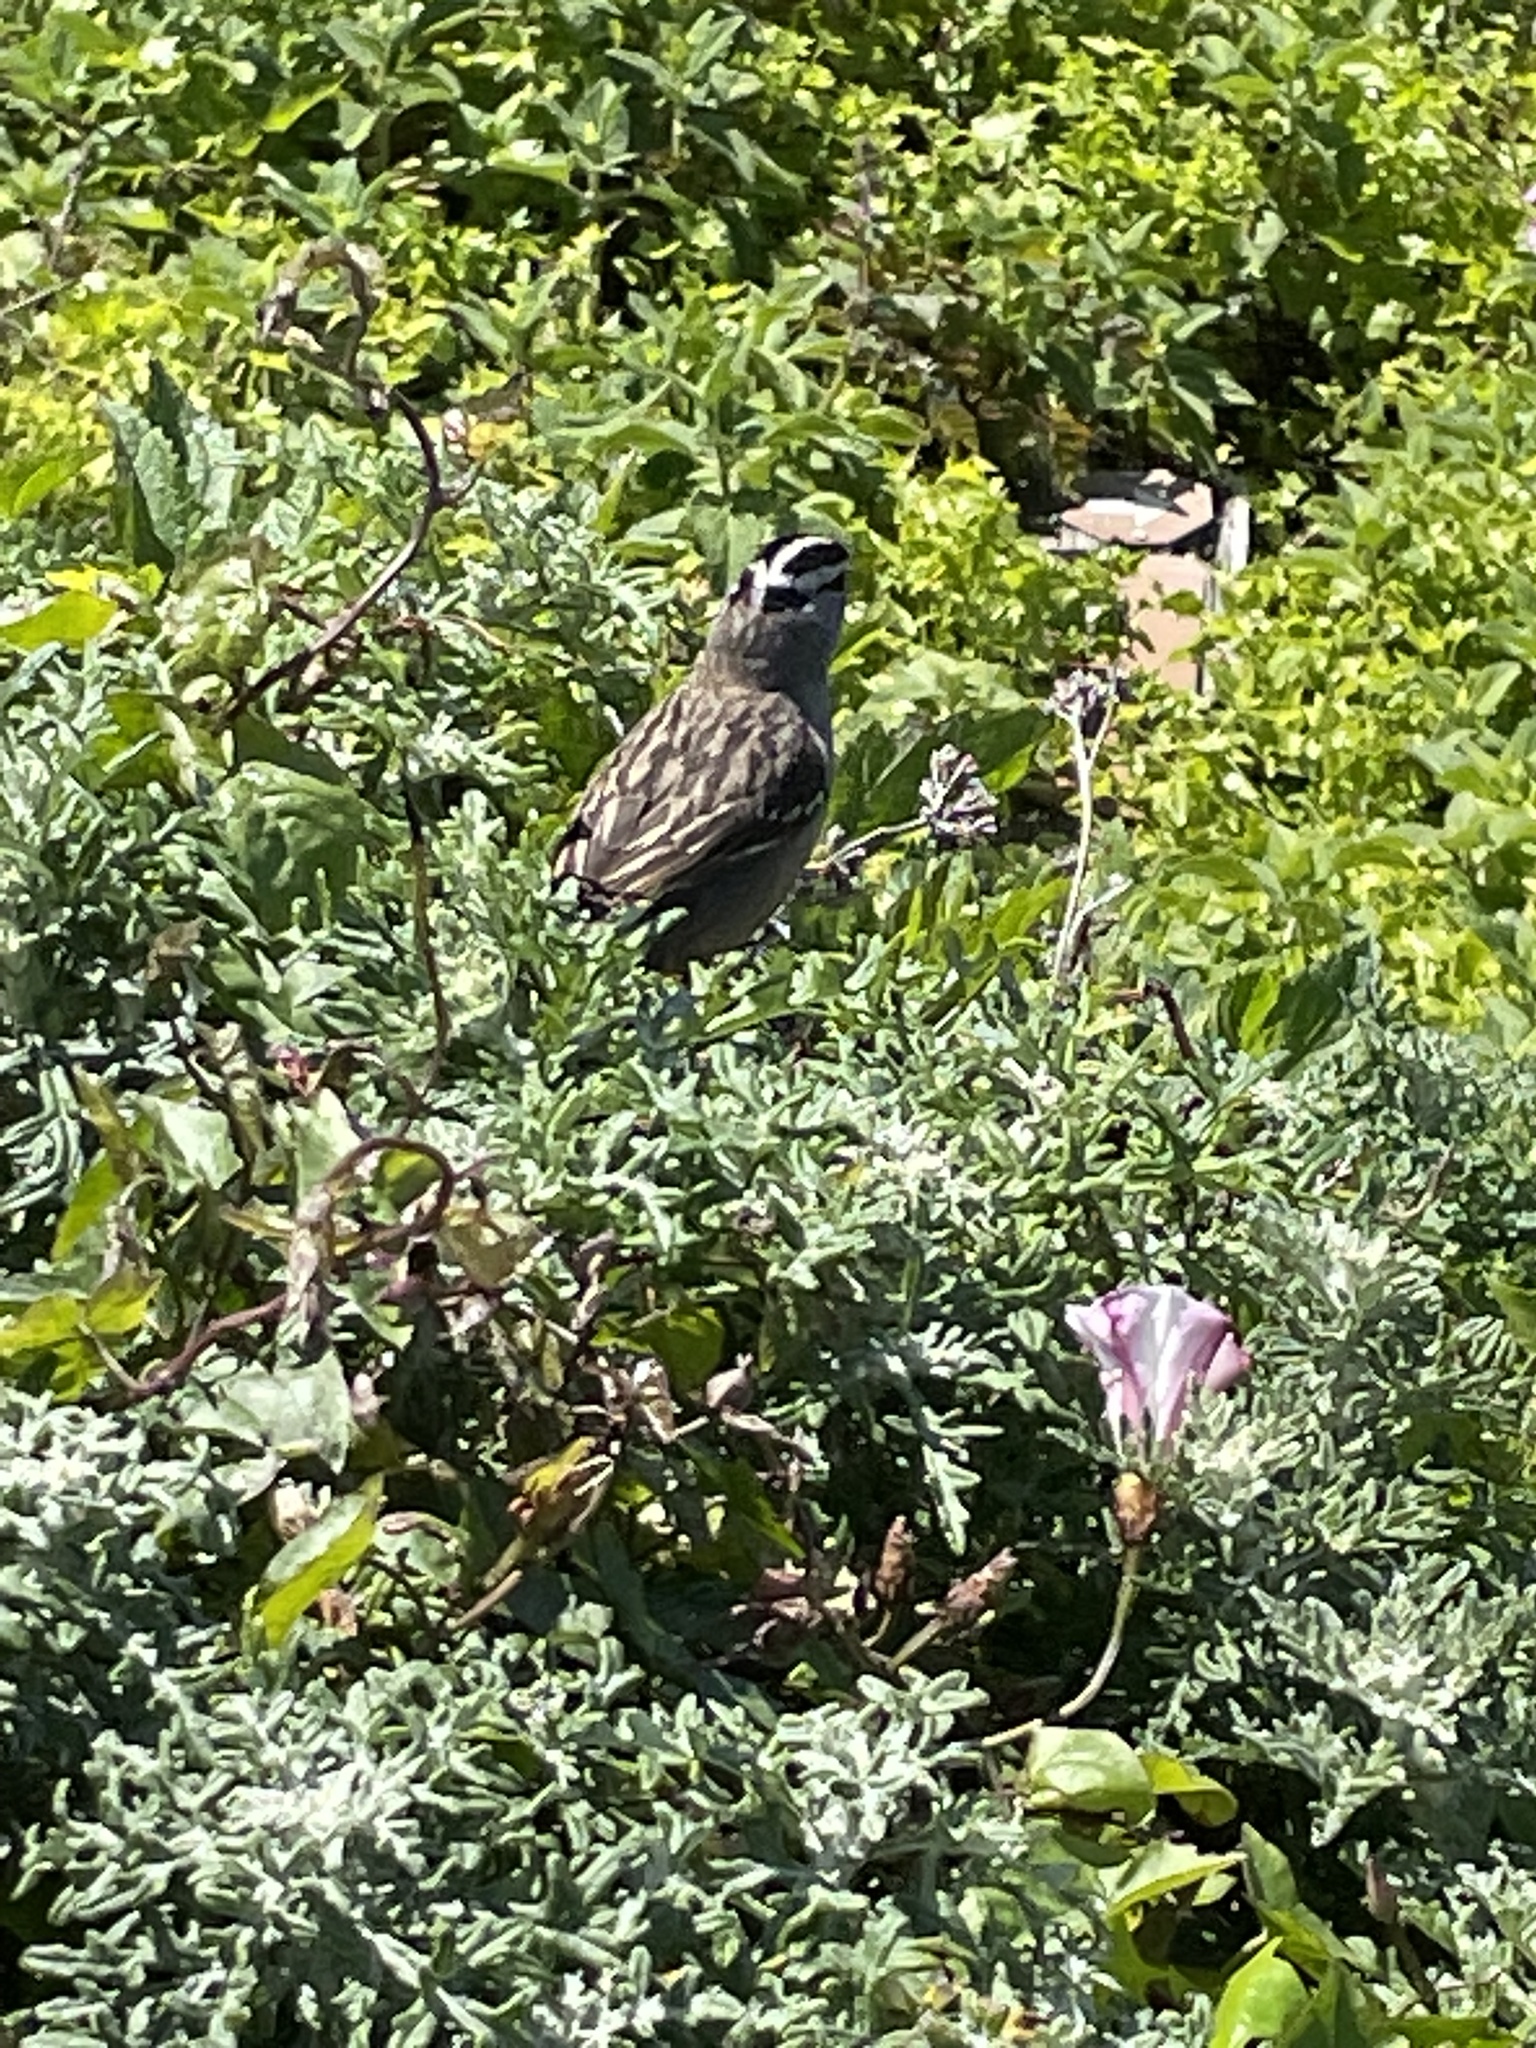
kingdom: Animalia
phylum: Chordata
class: Aves
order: Passeriformes
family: Passerellidae
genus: Zonotrichia
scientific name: Zonotrichia leucophrys
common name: White-crowned sparrow
